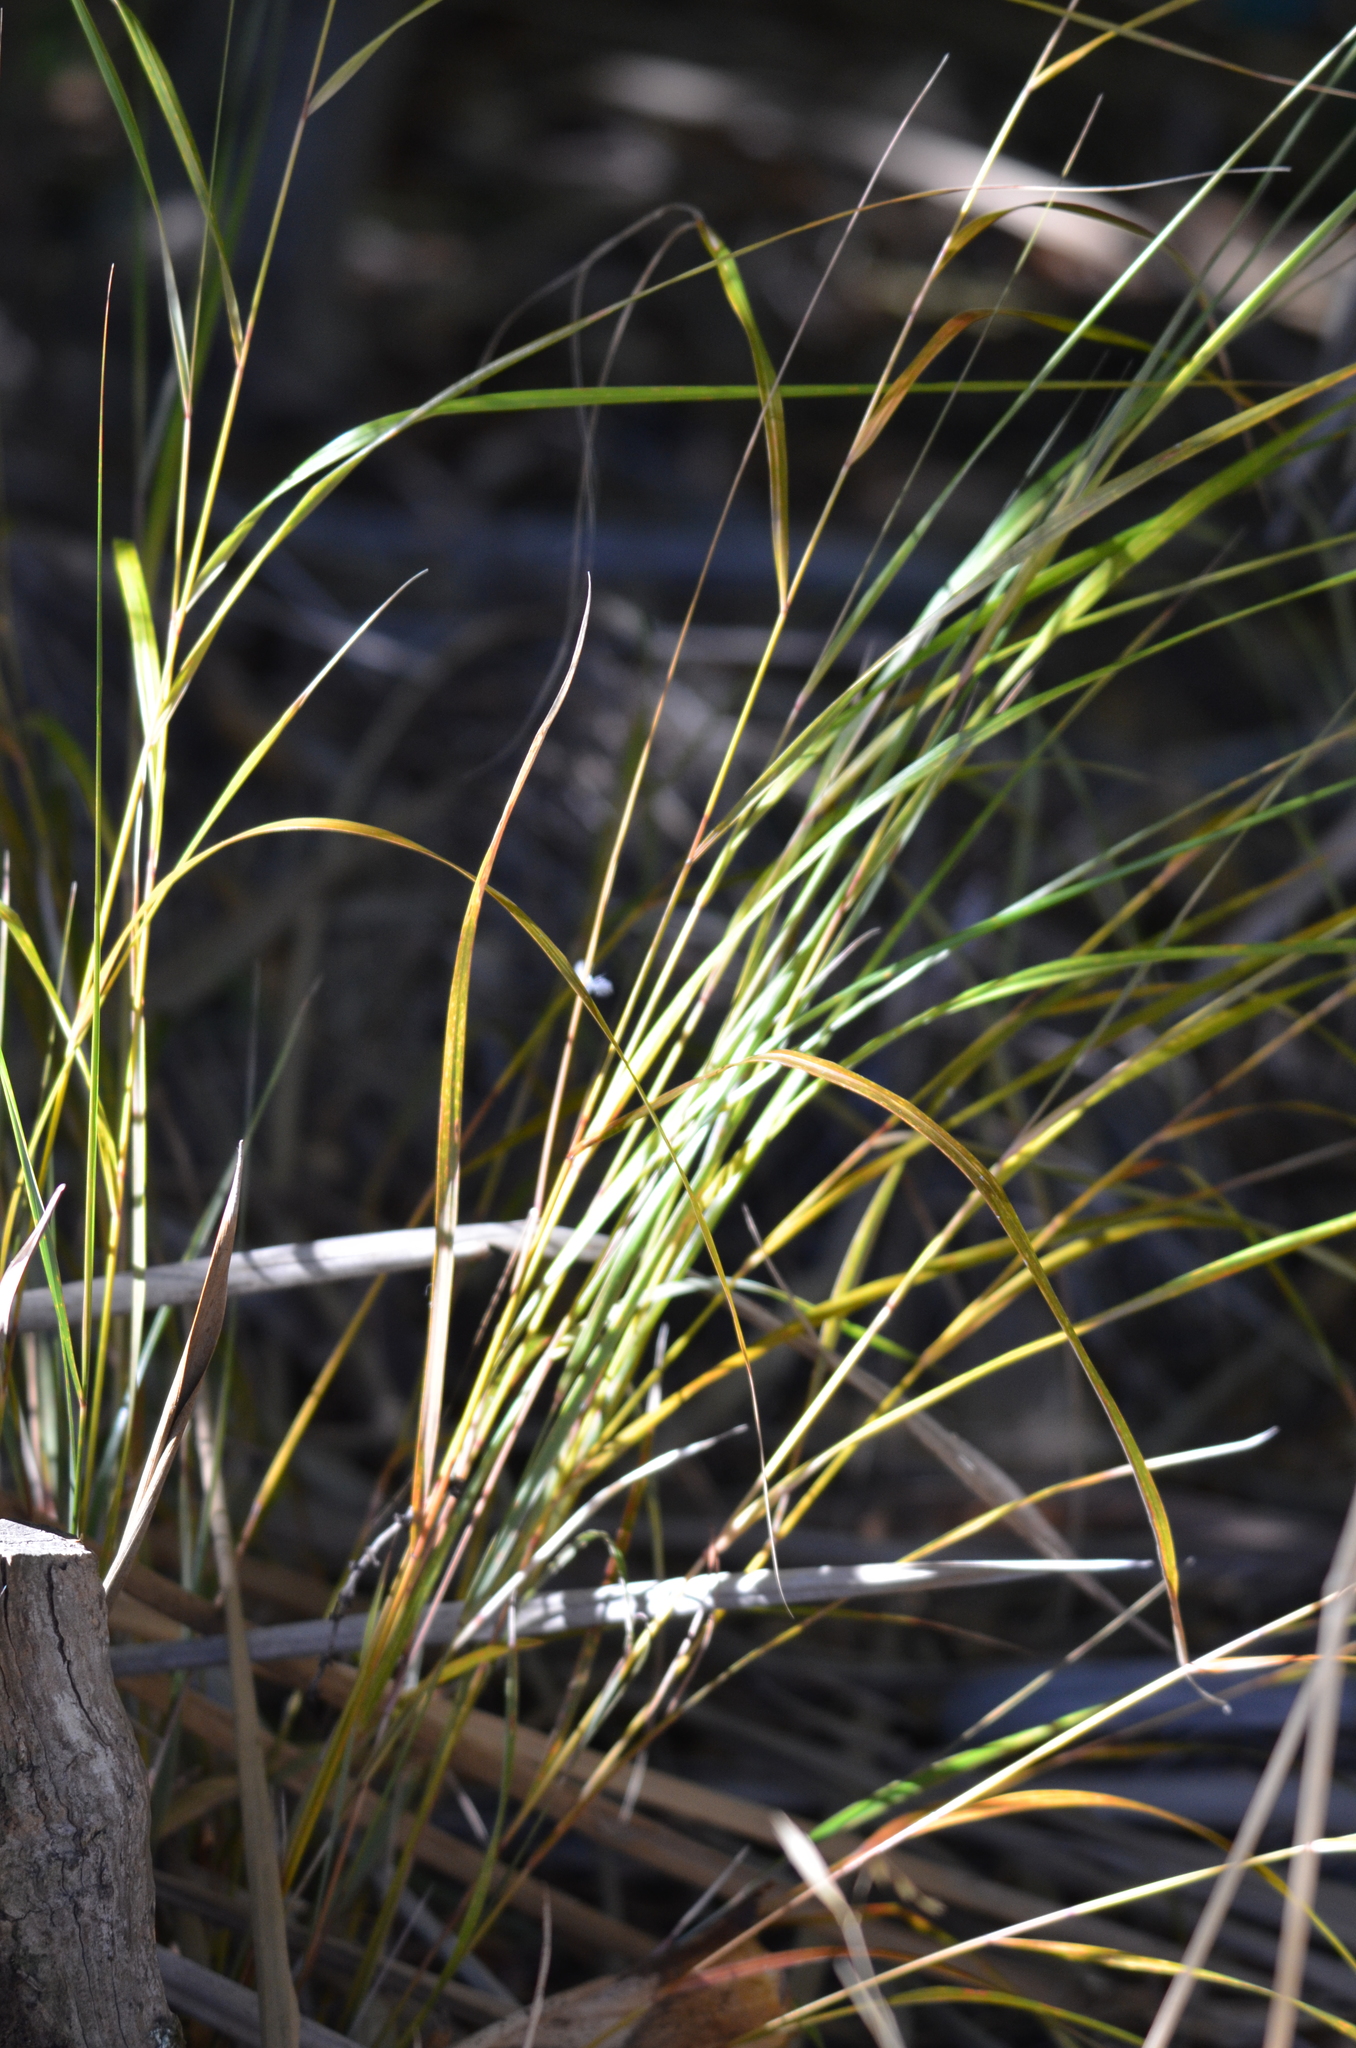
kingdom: Plantae
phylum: Tracheophyta
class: Liliopsida
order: Poales
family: Poaceae
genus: Anemanthele
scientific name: Anemanthele lessoniana
